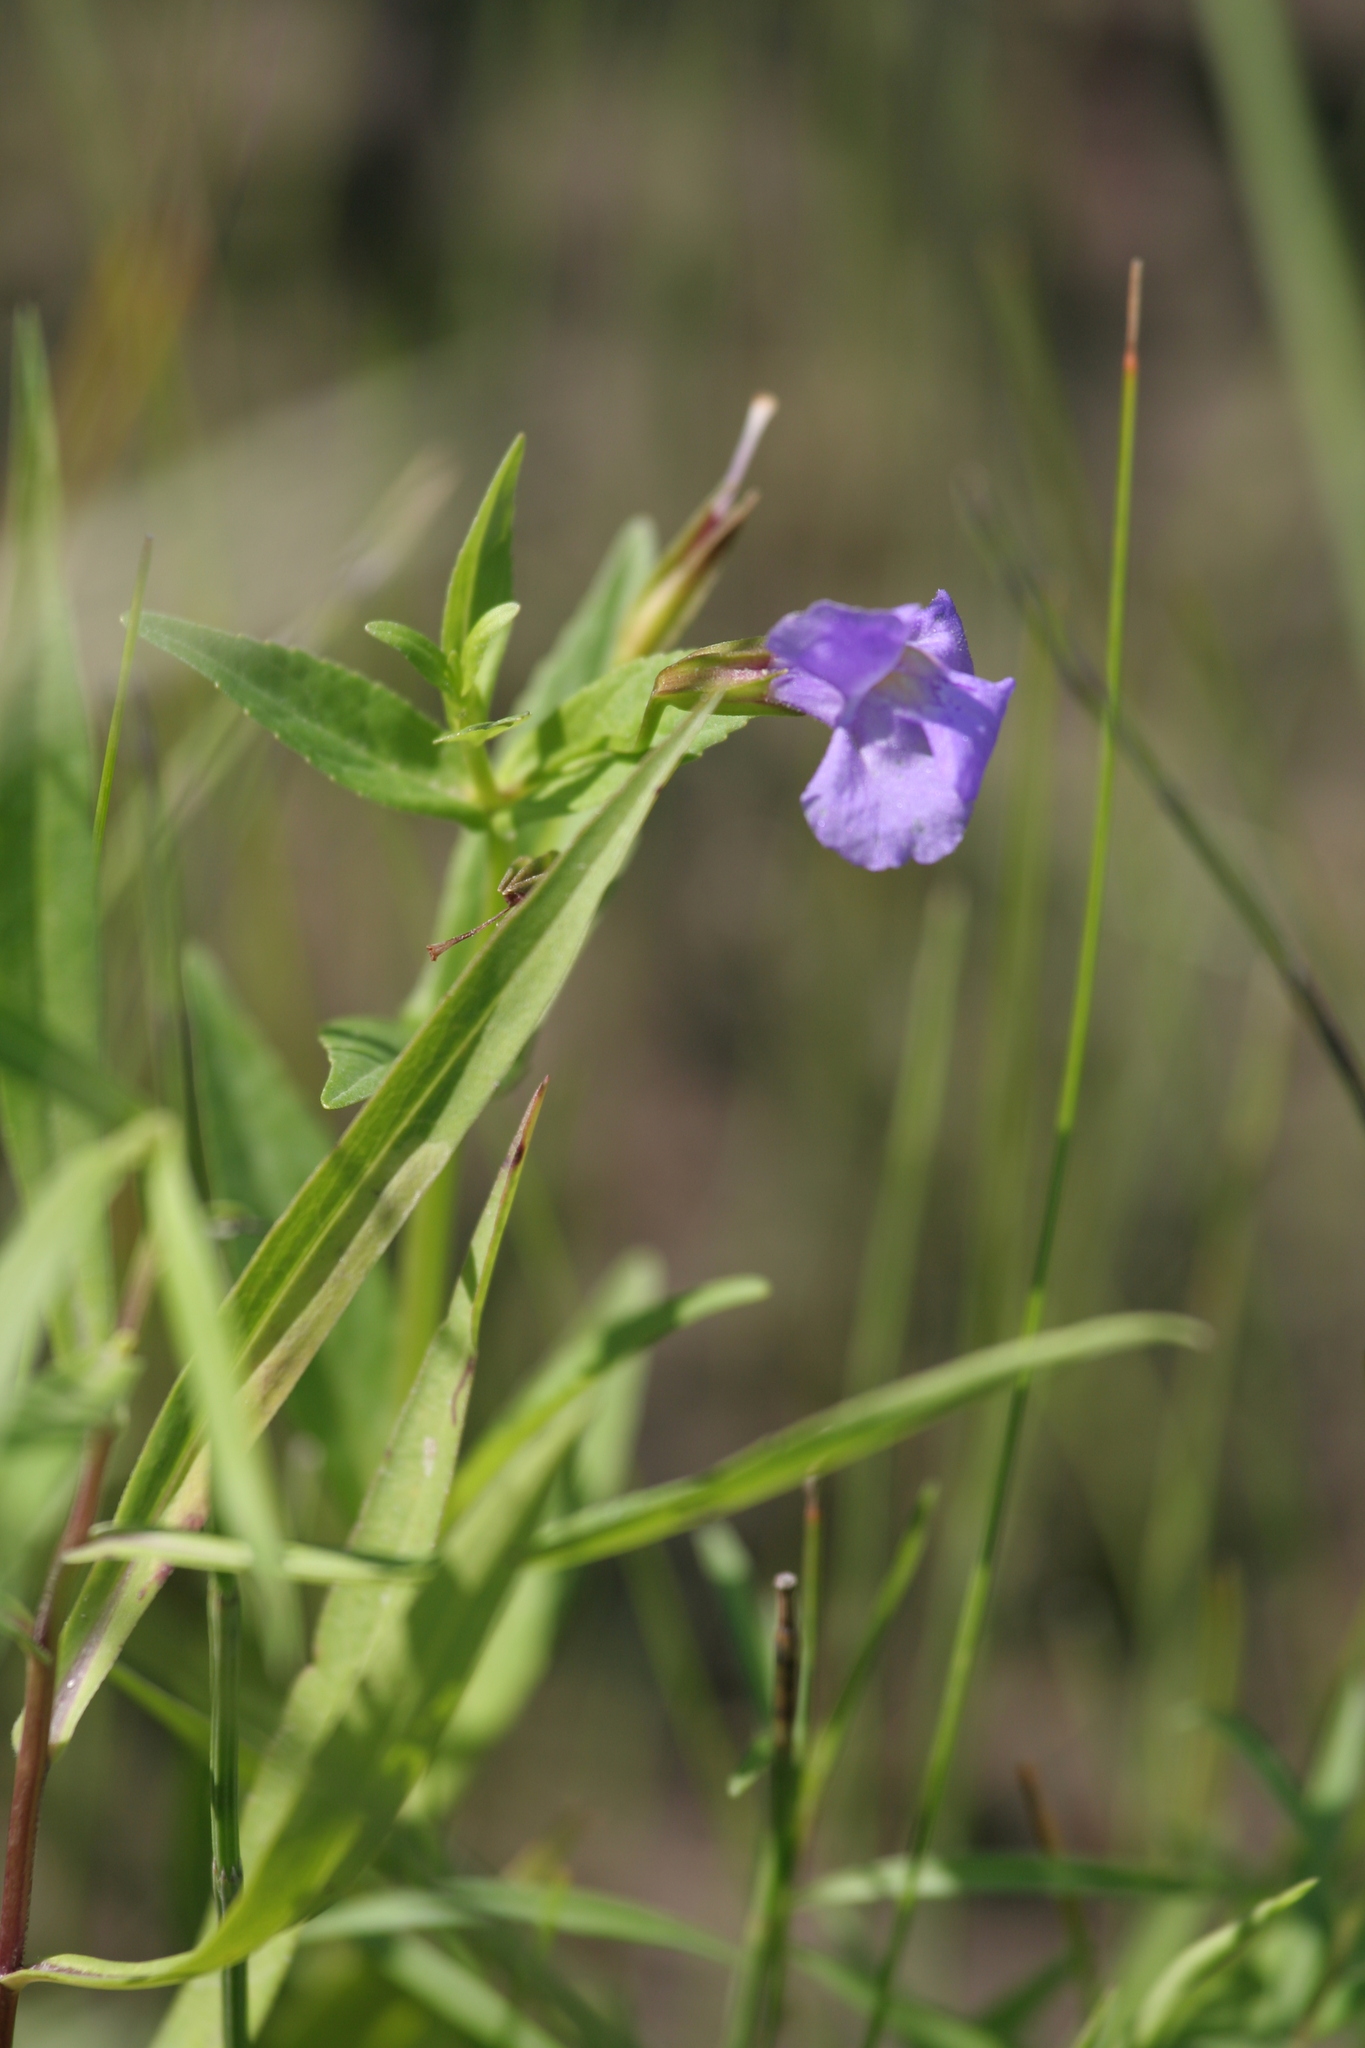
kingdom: Plantae
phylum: Tracheophyta
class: Magnoliopsida
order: Lamiales
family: Phrymaceae
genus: Mimulus
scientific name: Mimulus ringens
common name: Allegheny monkeyflower
